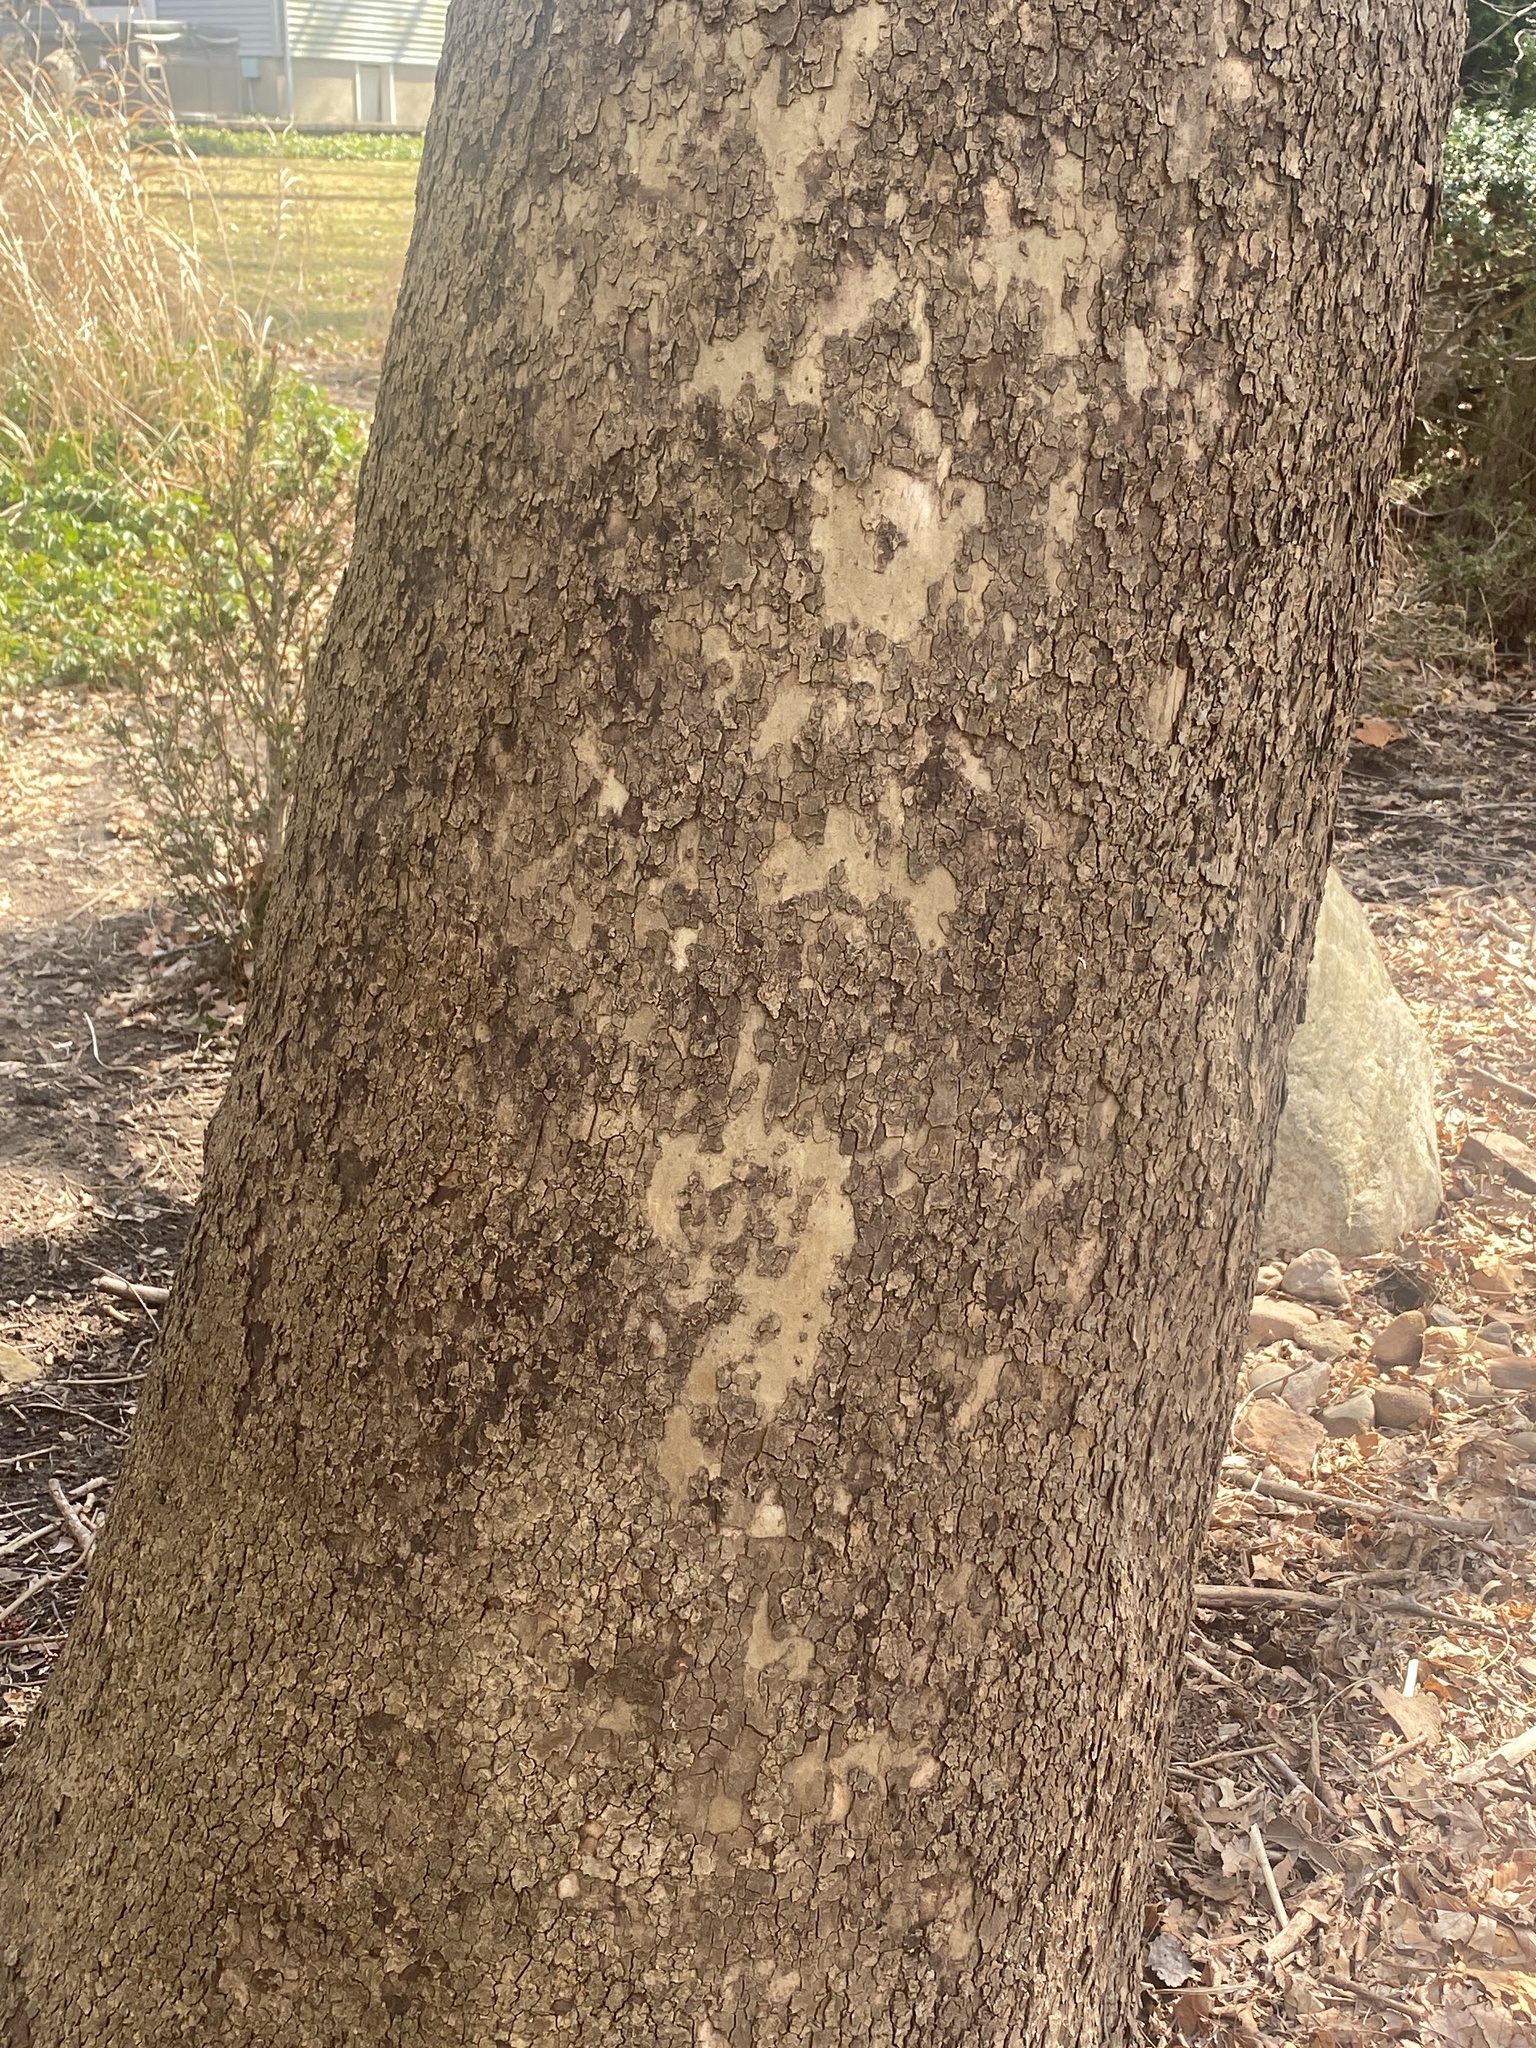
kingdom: Plantae
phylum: Tracheophyta
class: Magnoliopsida
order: Proteales
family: Platanaceae
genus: Platanus
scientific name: Platanus occidentalis
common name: American sycamore
